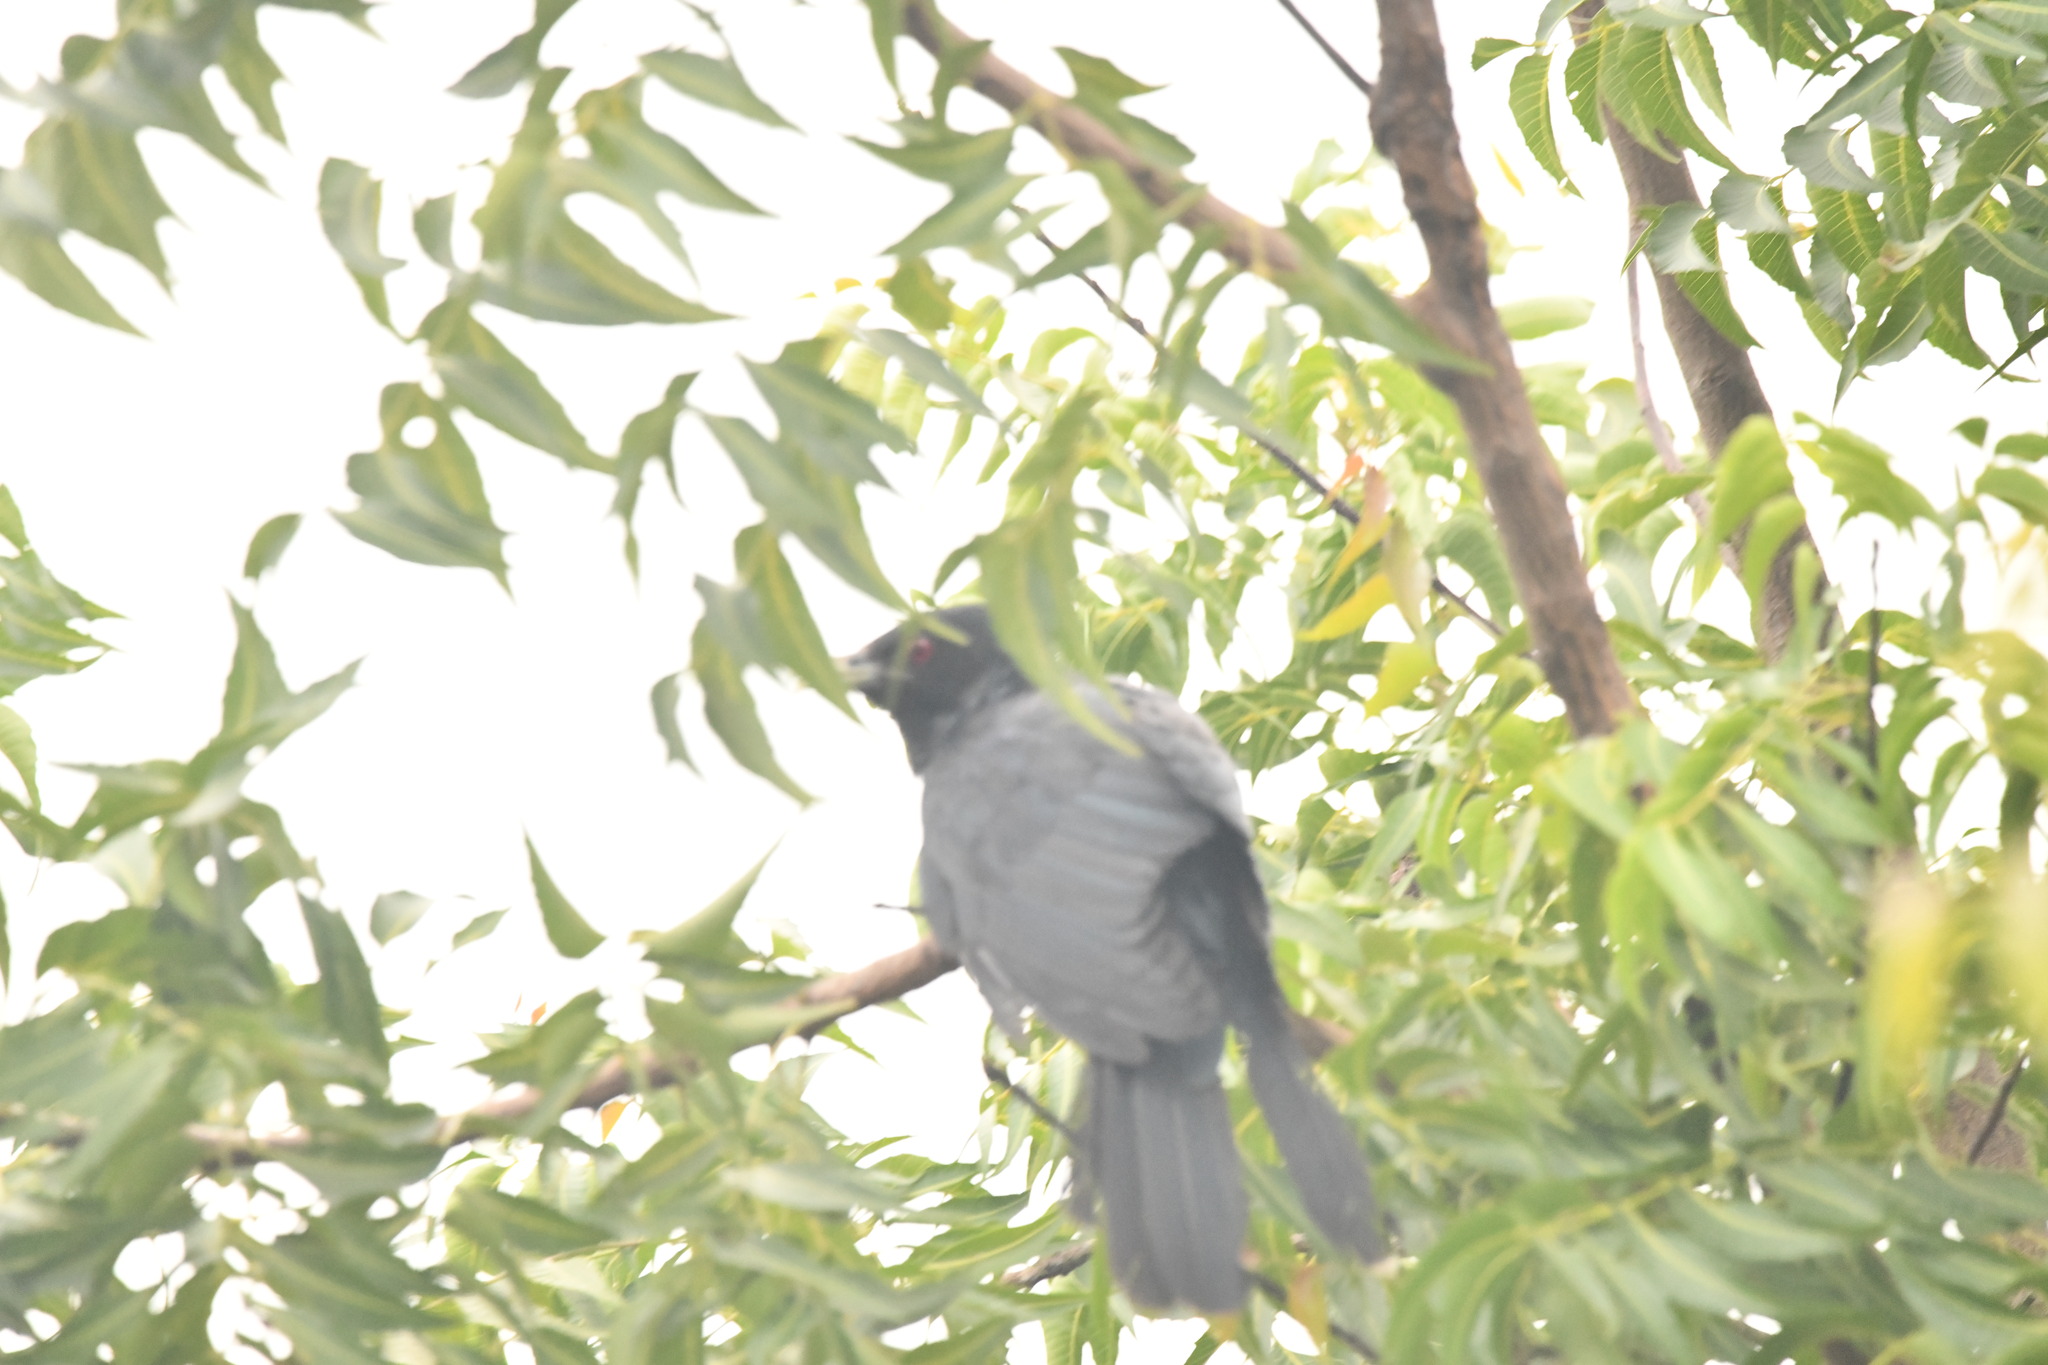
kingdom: Animalia
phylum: Chordata
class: Aves
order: Cuculiformes
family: Cuculidae
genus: Eudynamys
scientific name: Eudynamys scolopaceus
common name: Asian koel
